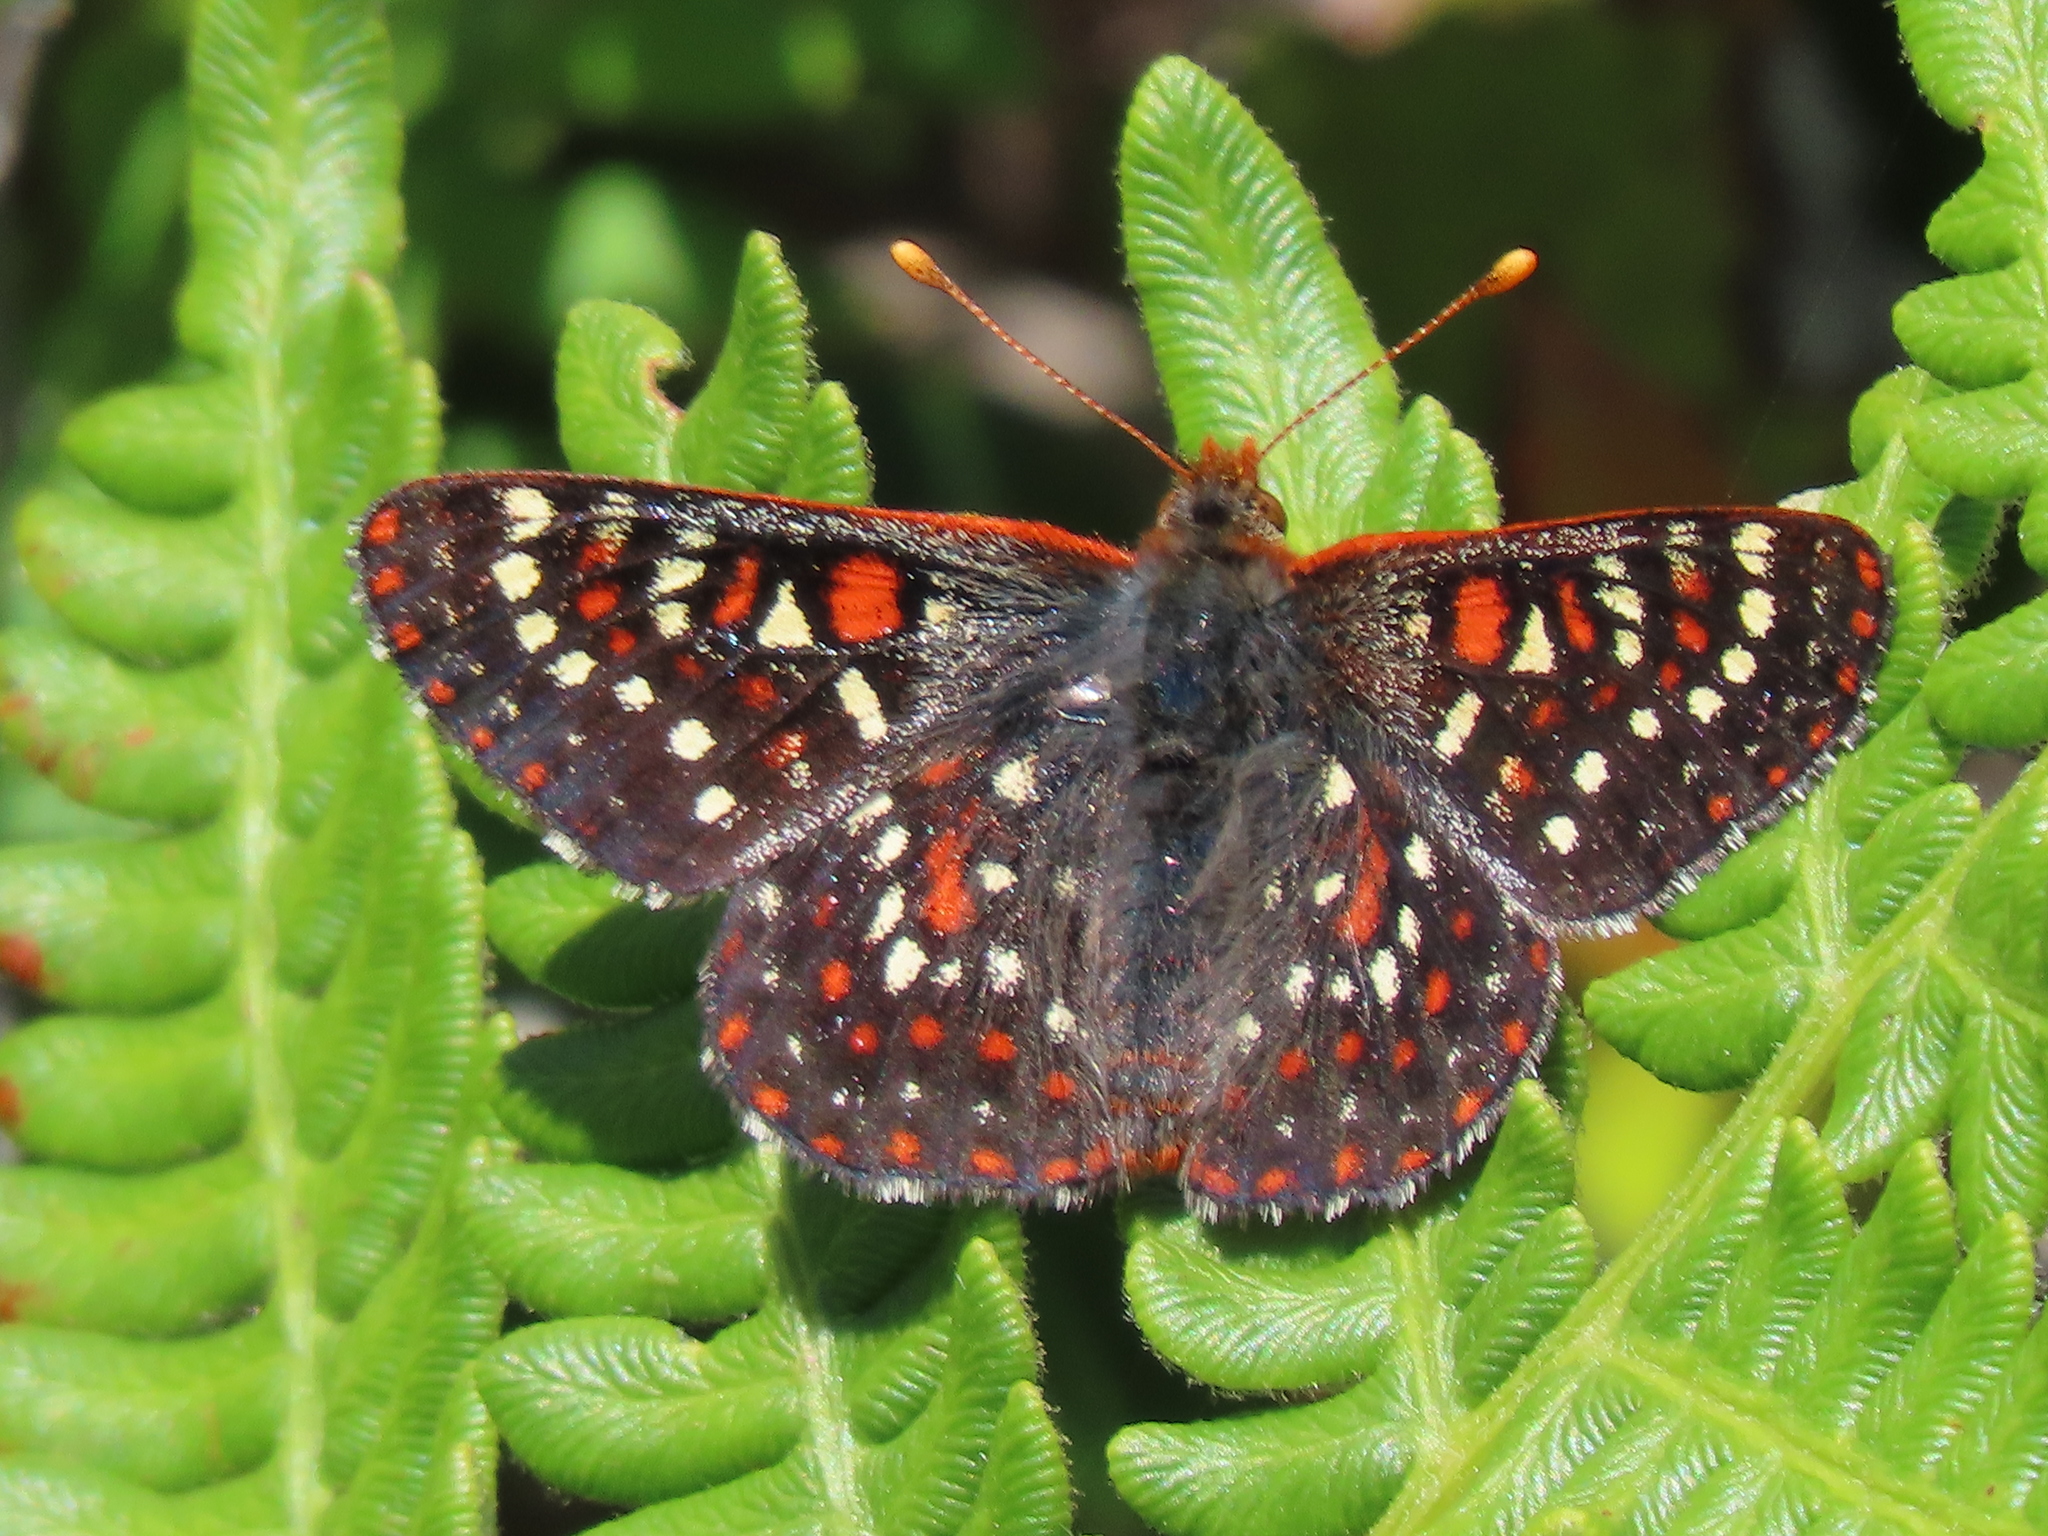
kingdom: Animalia
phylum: Arthropoda
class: Insecta
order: Lepidoptera
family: Nymphalidae
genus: Occidryas
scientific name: Occidryas editha
